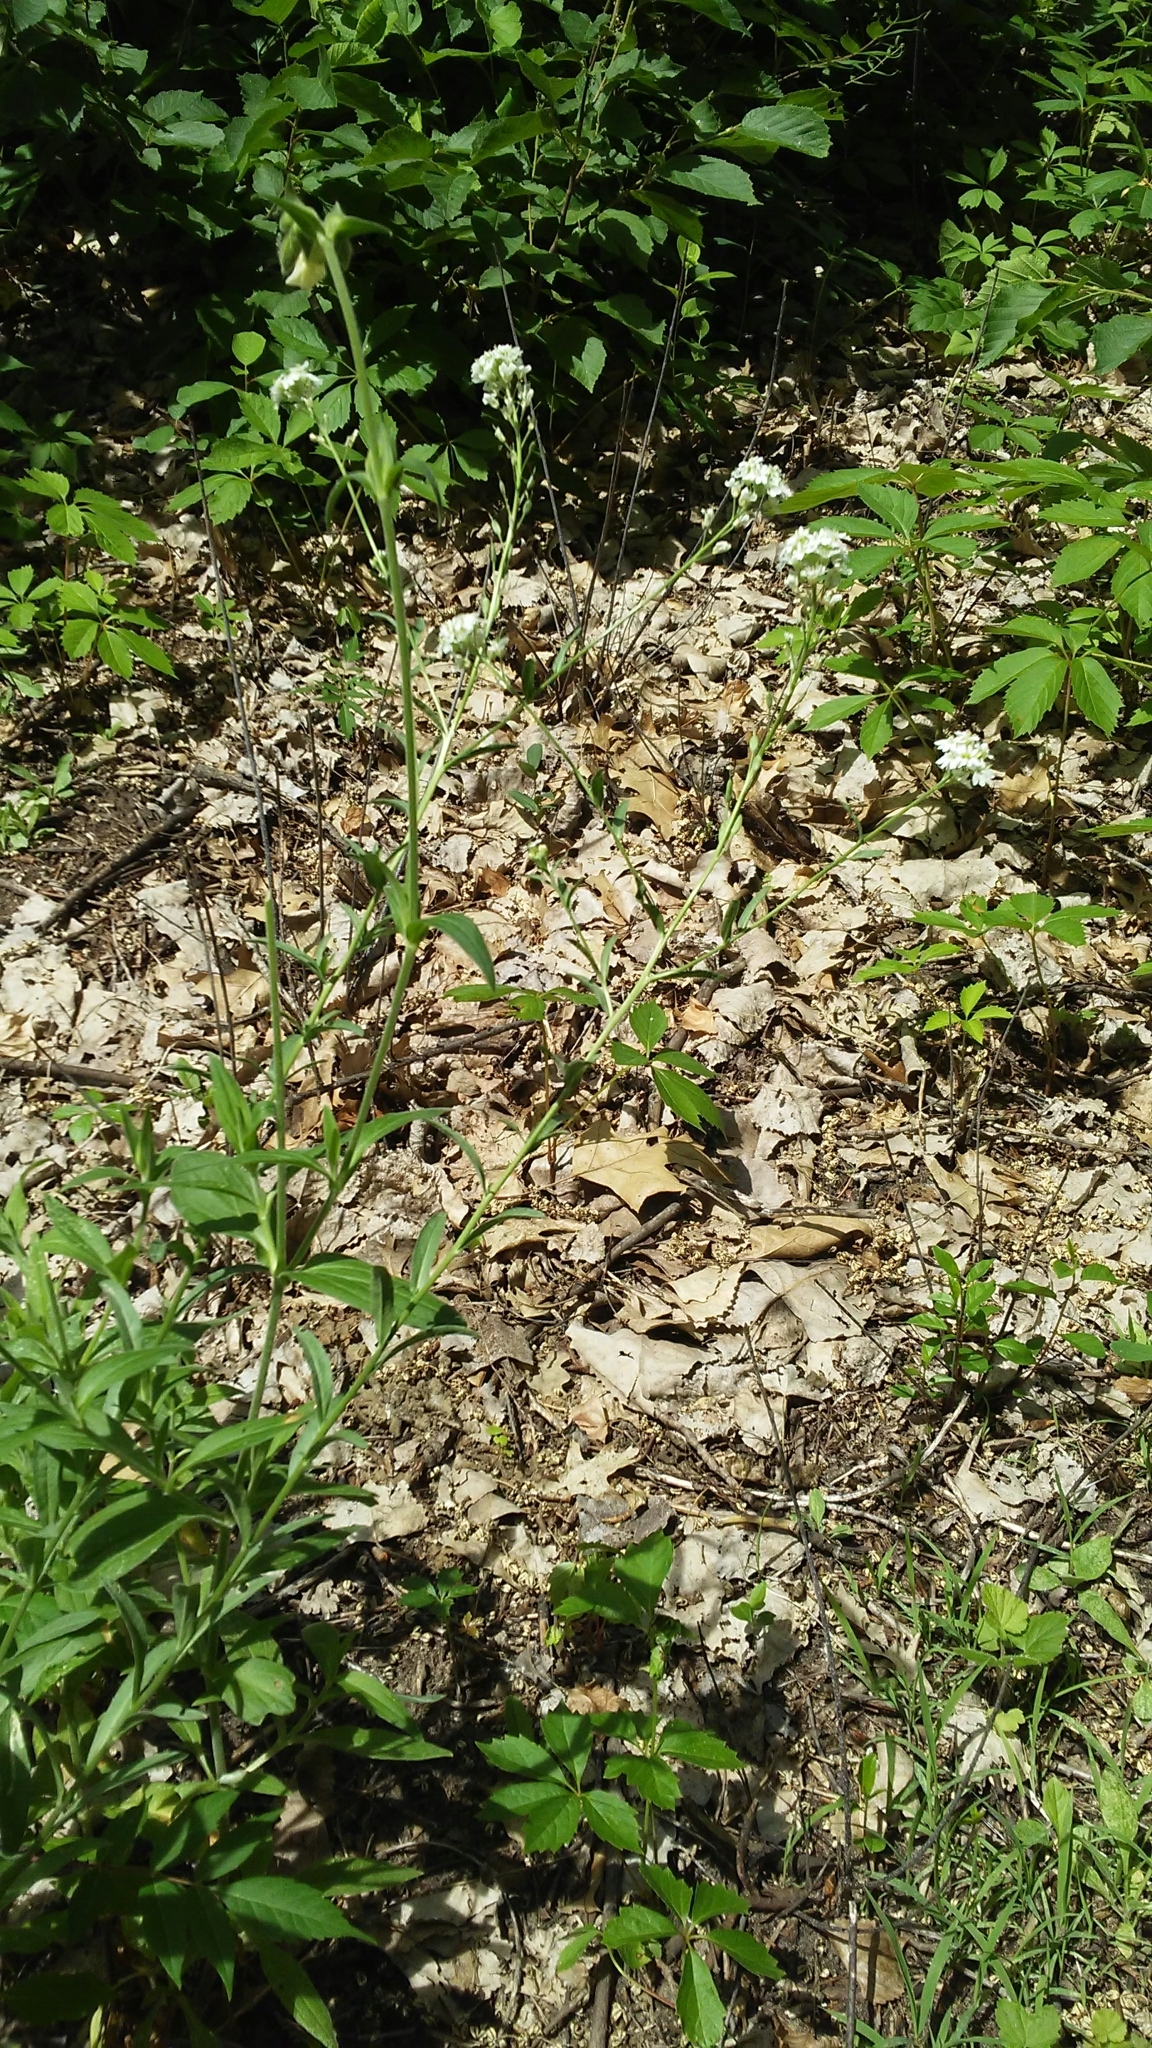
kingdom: Plantae
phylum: Tracheophyta
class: Magnoliopsida
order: Brassicales
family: Brassicaceae
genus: Berteroa
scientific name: Berteroa incana
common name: Hoary alison
